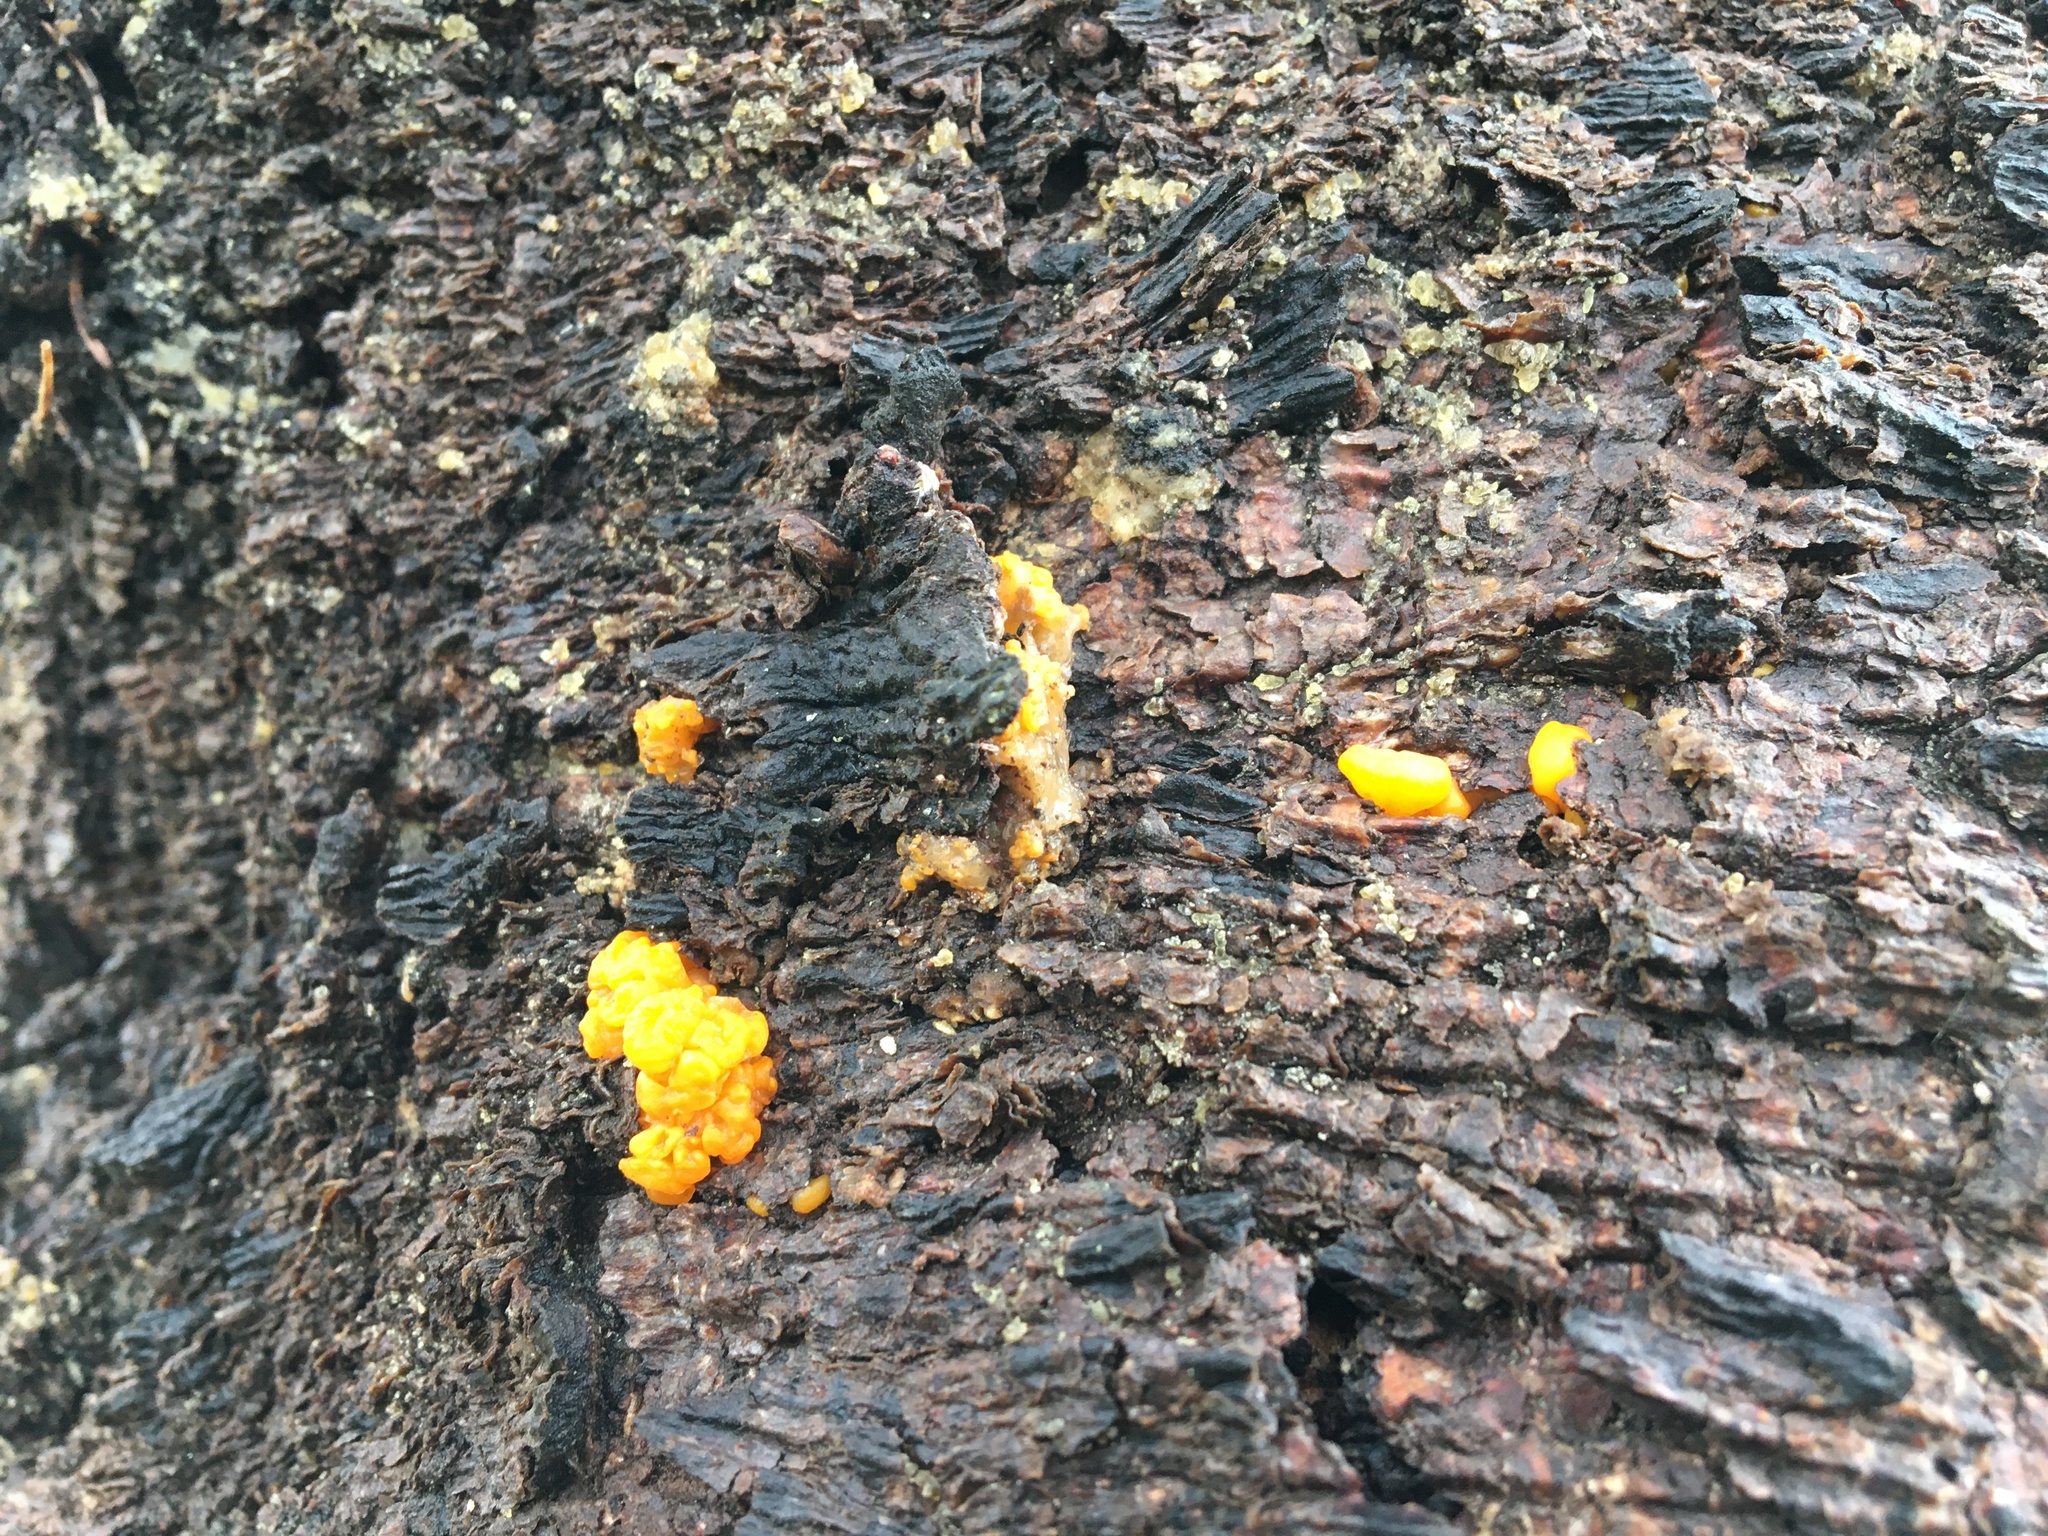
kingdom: Fungi
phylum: Basidiomycota
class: Dacrymycetes
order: Dacrymycetales
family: Dacrymycetaceae
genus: Dacrymyces
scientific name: Dacrymyces chrysospermus
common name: Orange jelly spot
